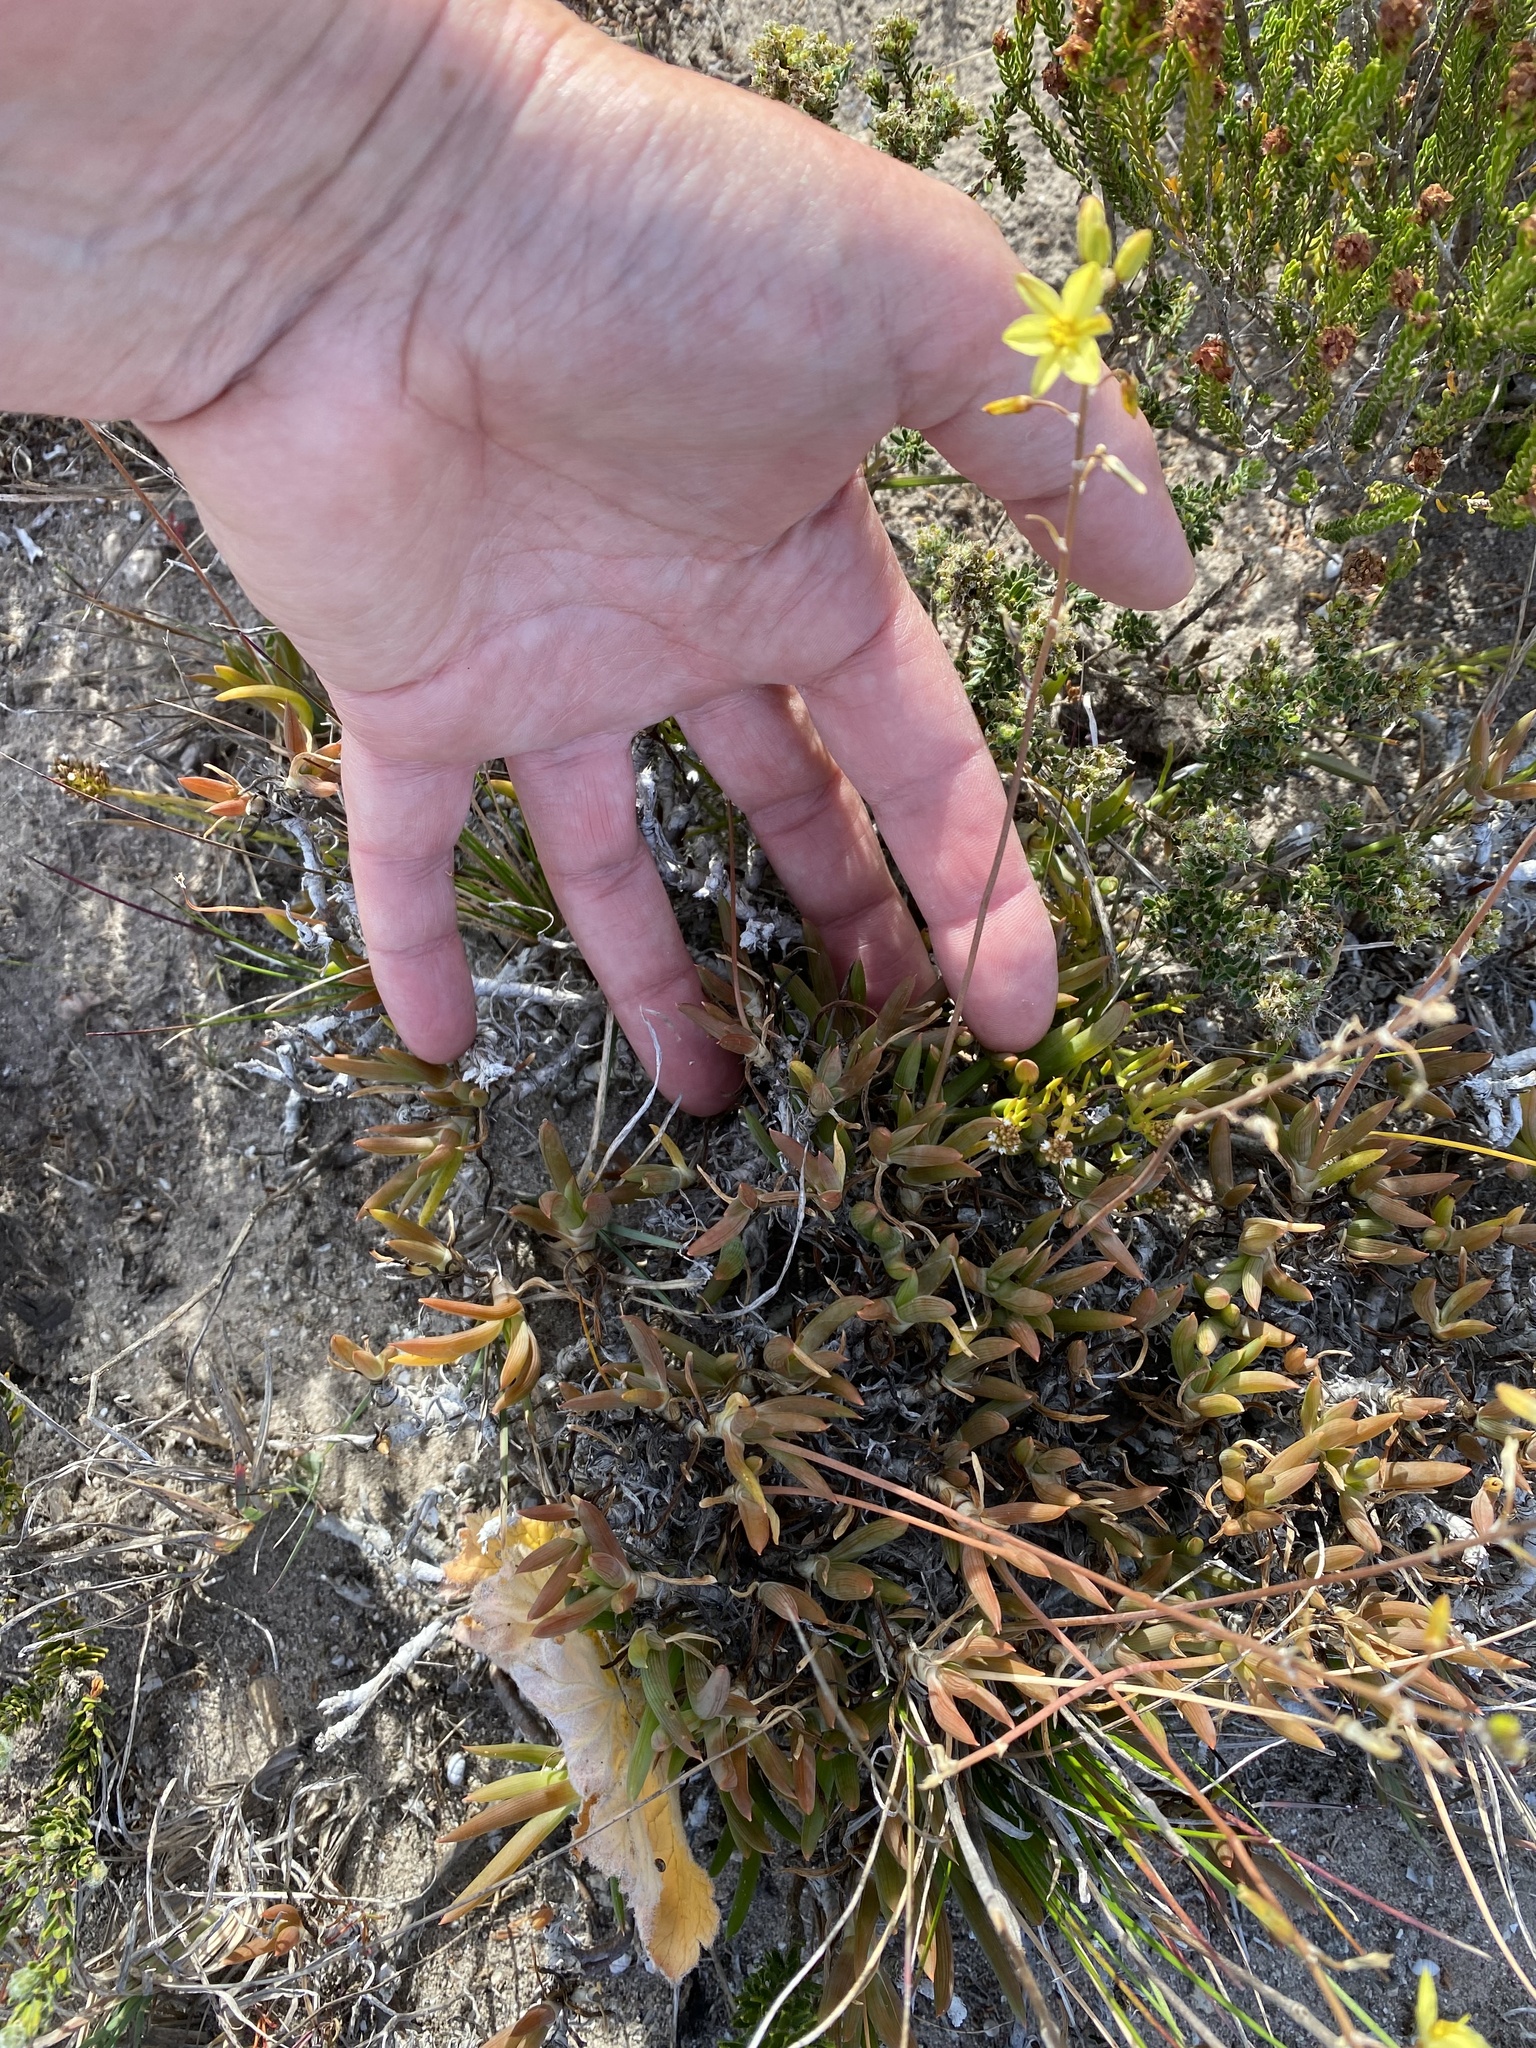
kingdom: Plantae
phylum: Tracheophyta
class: Liliopsida
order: Asparagales
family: Asphodelaceae
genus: Bulbine
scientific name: Bulbine frutescens
